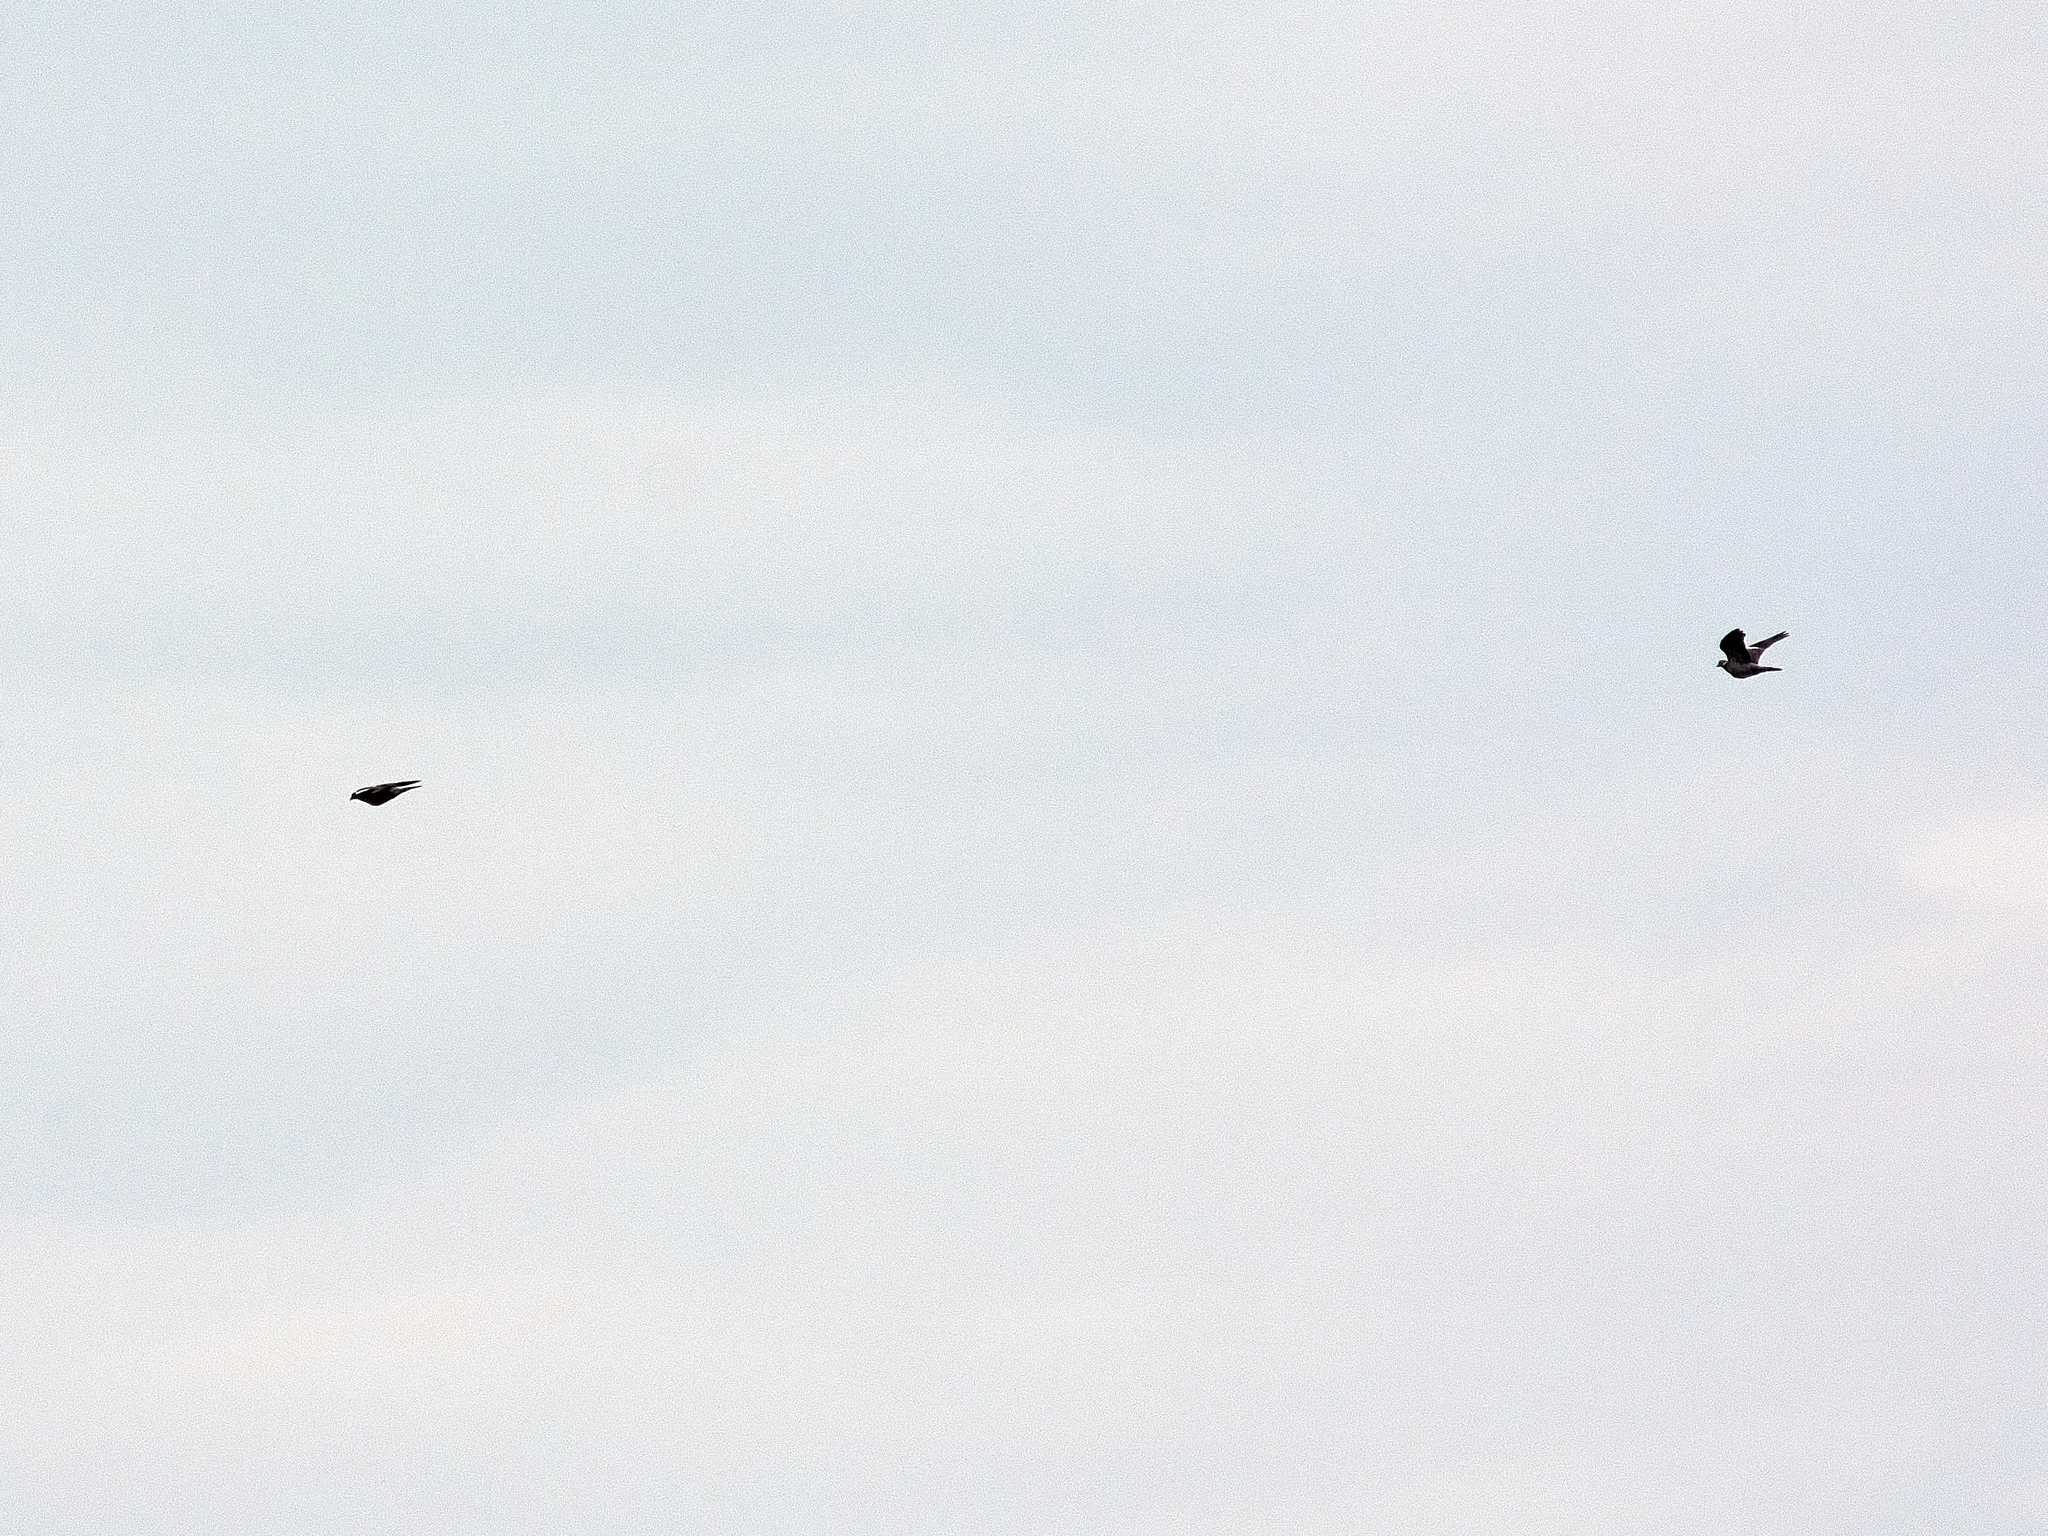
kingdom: Animalia
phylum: Chordata
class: Aves
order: Columbiformes
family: Columbidae
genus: Columba
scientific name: Columba palumbus
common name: Common wood pigeon
